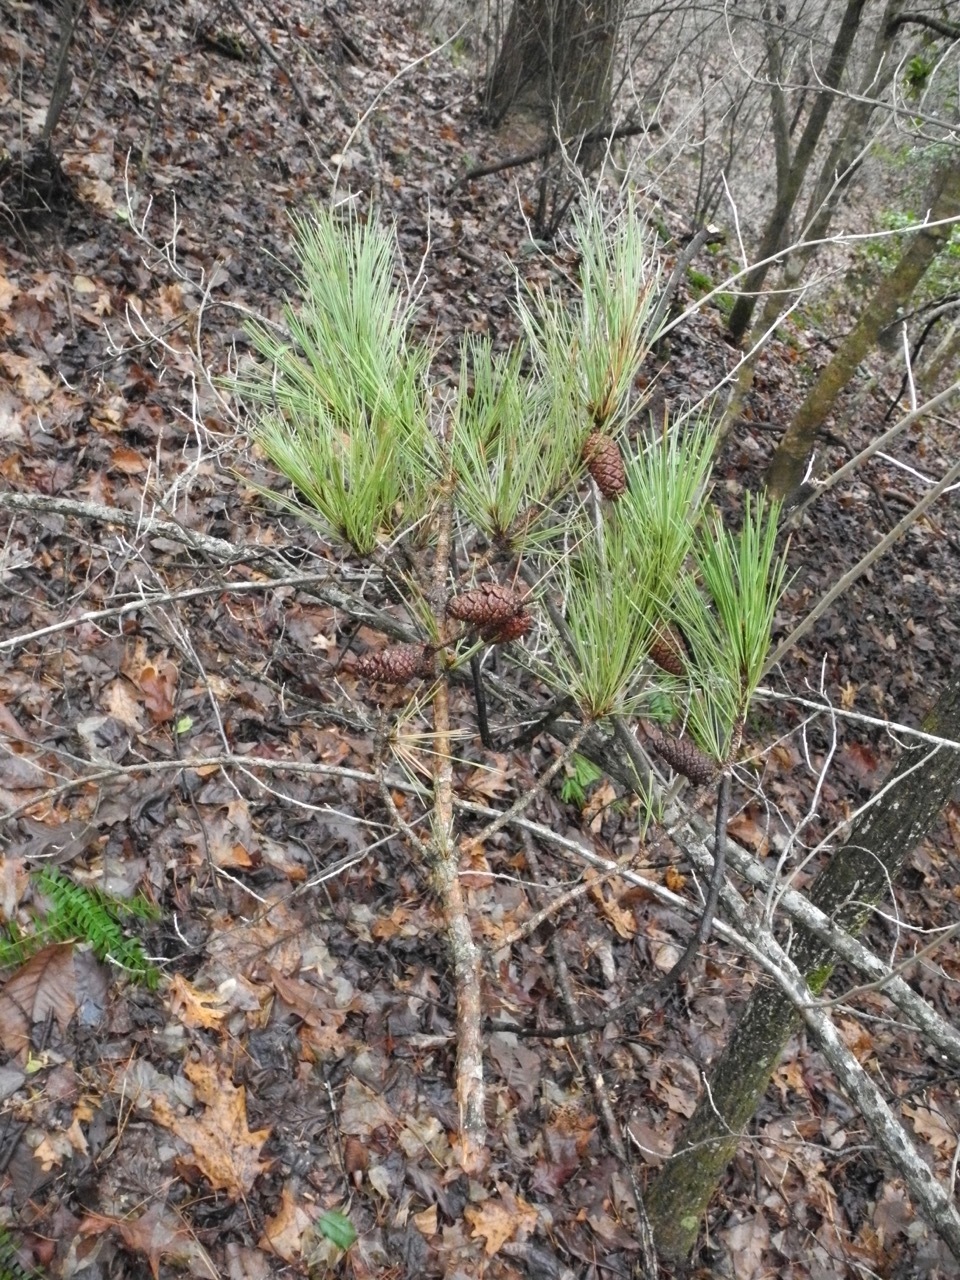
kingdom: Plantae
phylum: Tracheophyta
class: Pinopsida
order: Pinales
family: Pinaceae
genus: Pinus
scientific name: Pinus echinata
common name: Shortleaf pine
